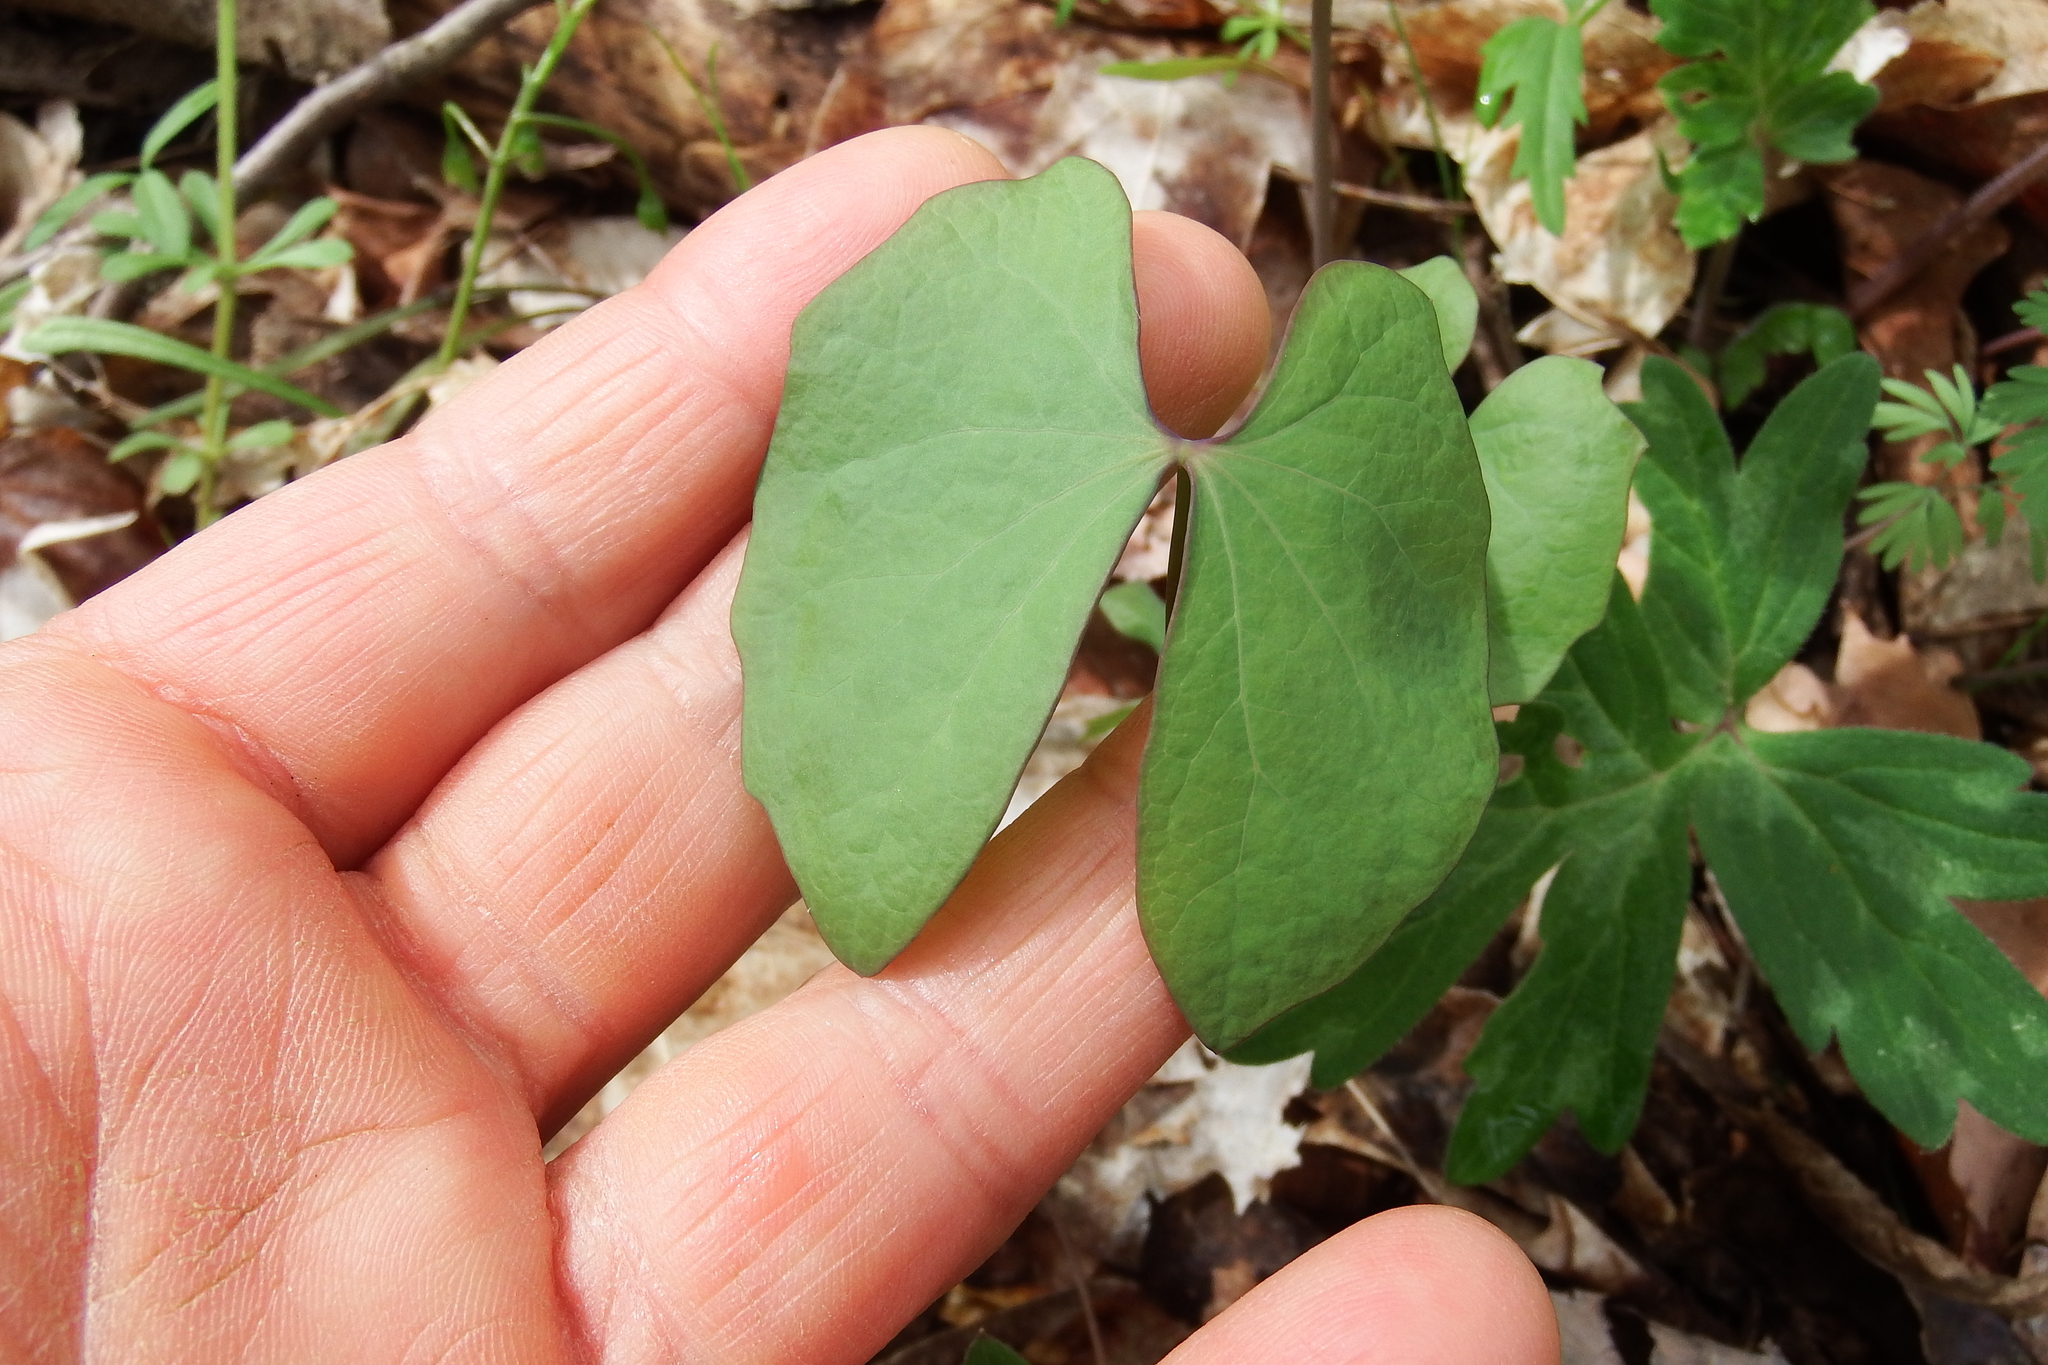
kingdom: Plantae
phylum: Tracheophyta
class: Magnoliopsida
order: Ranunculales
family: Berberidaceae
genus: Jeffersonia
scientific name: Jeffersonia diphylla
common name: Rheumatism-root
